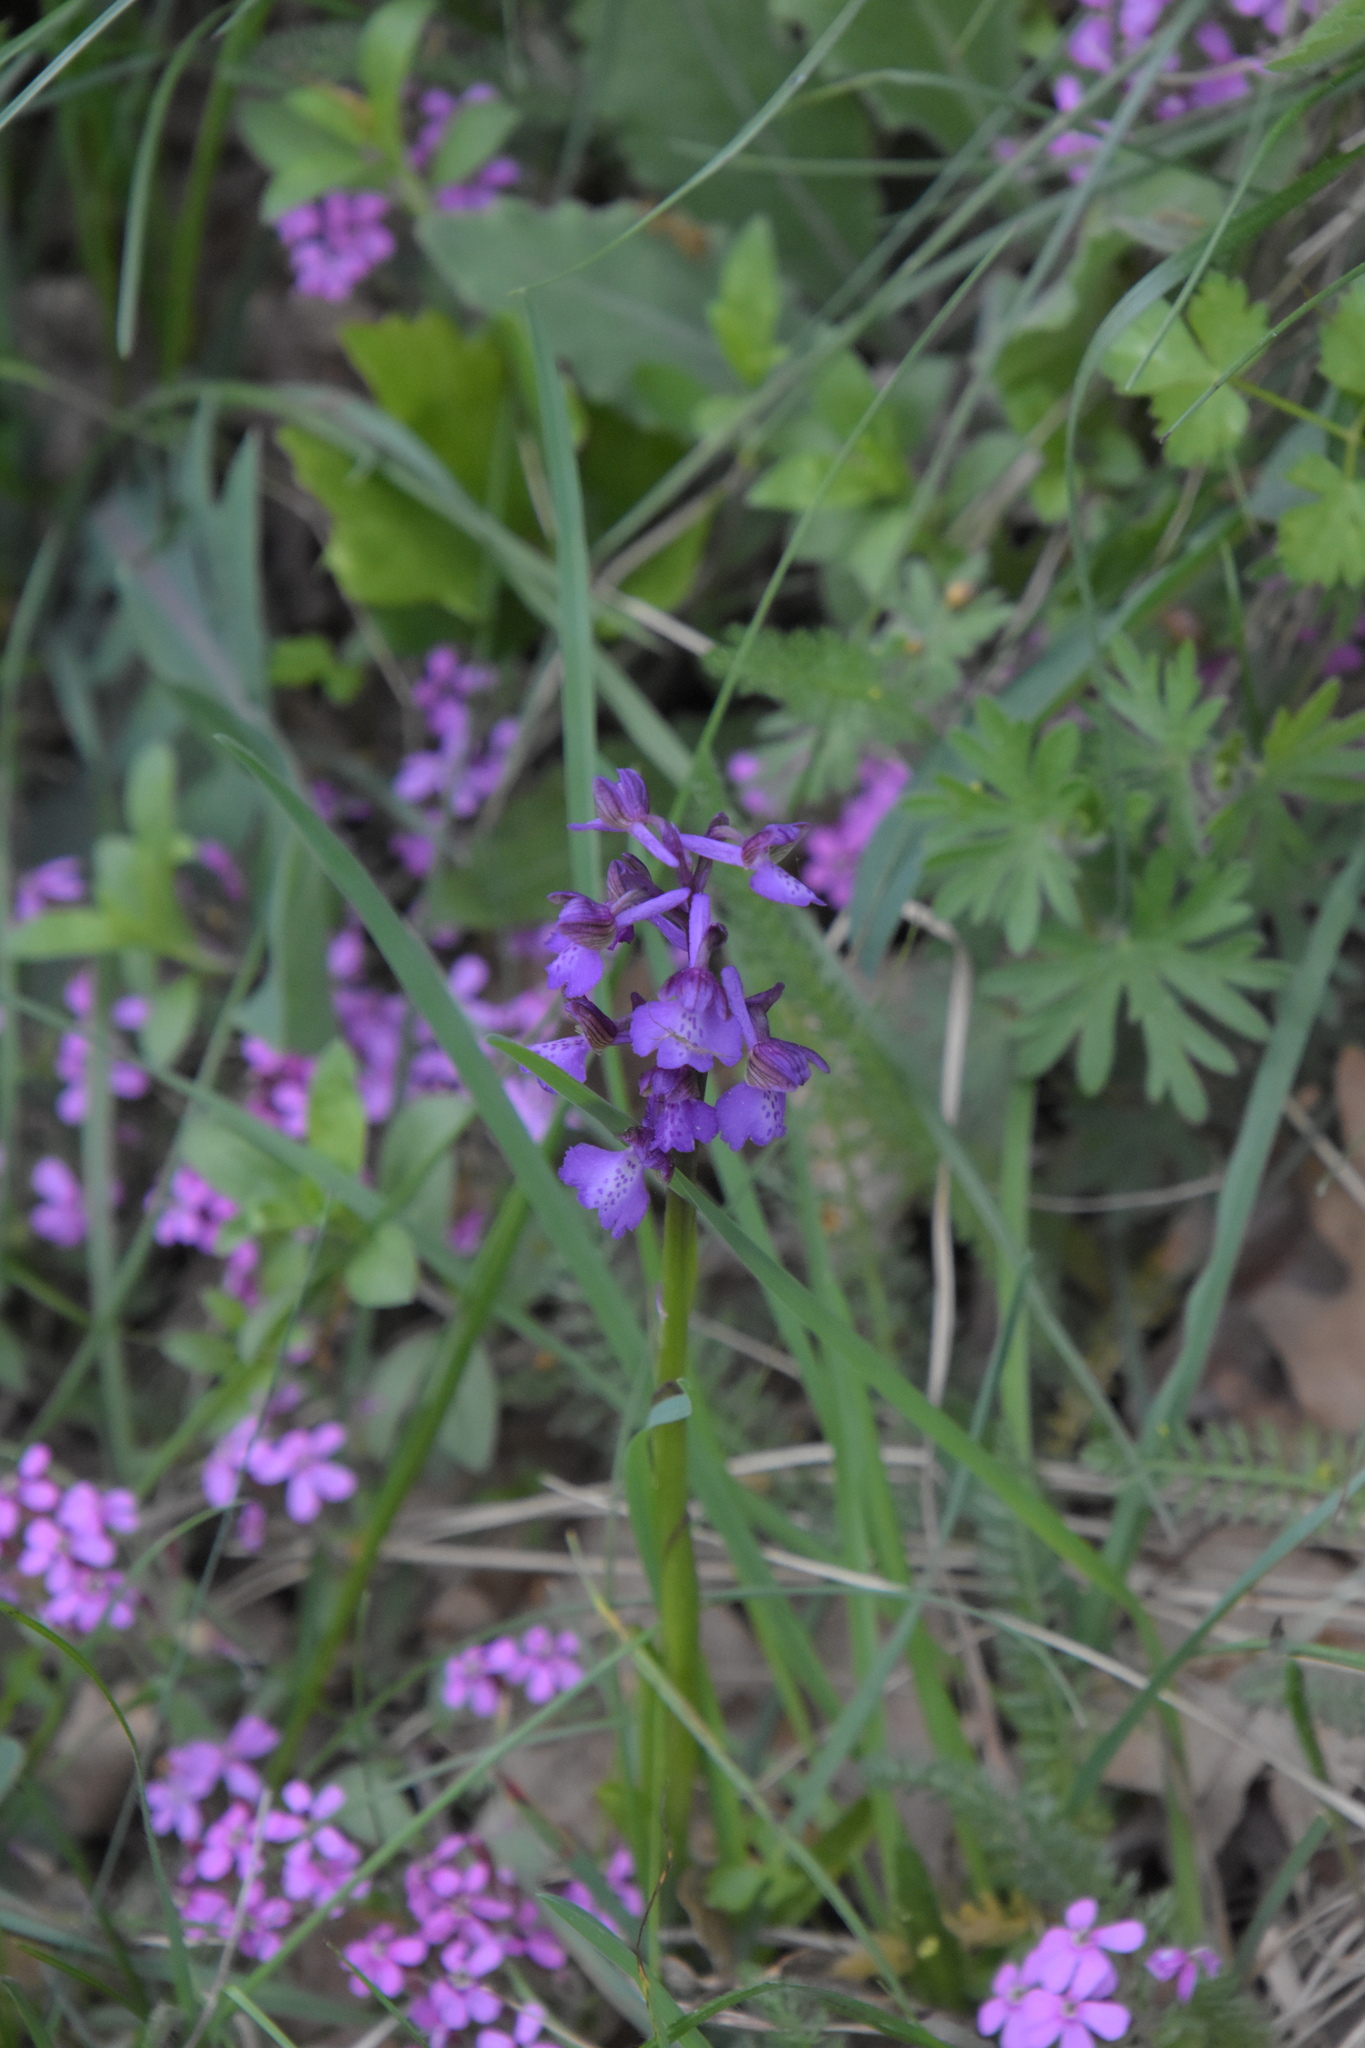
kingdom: Plantae
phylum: Tracheophyta
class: Liliopsida
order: Asparagales
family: Orchidaceae
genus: Anacamptis
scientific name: Anacamptis morio
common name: Green-winged orchid
